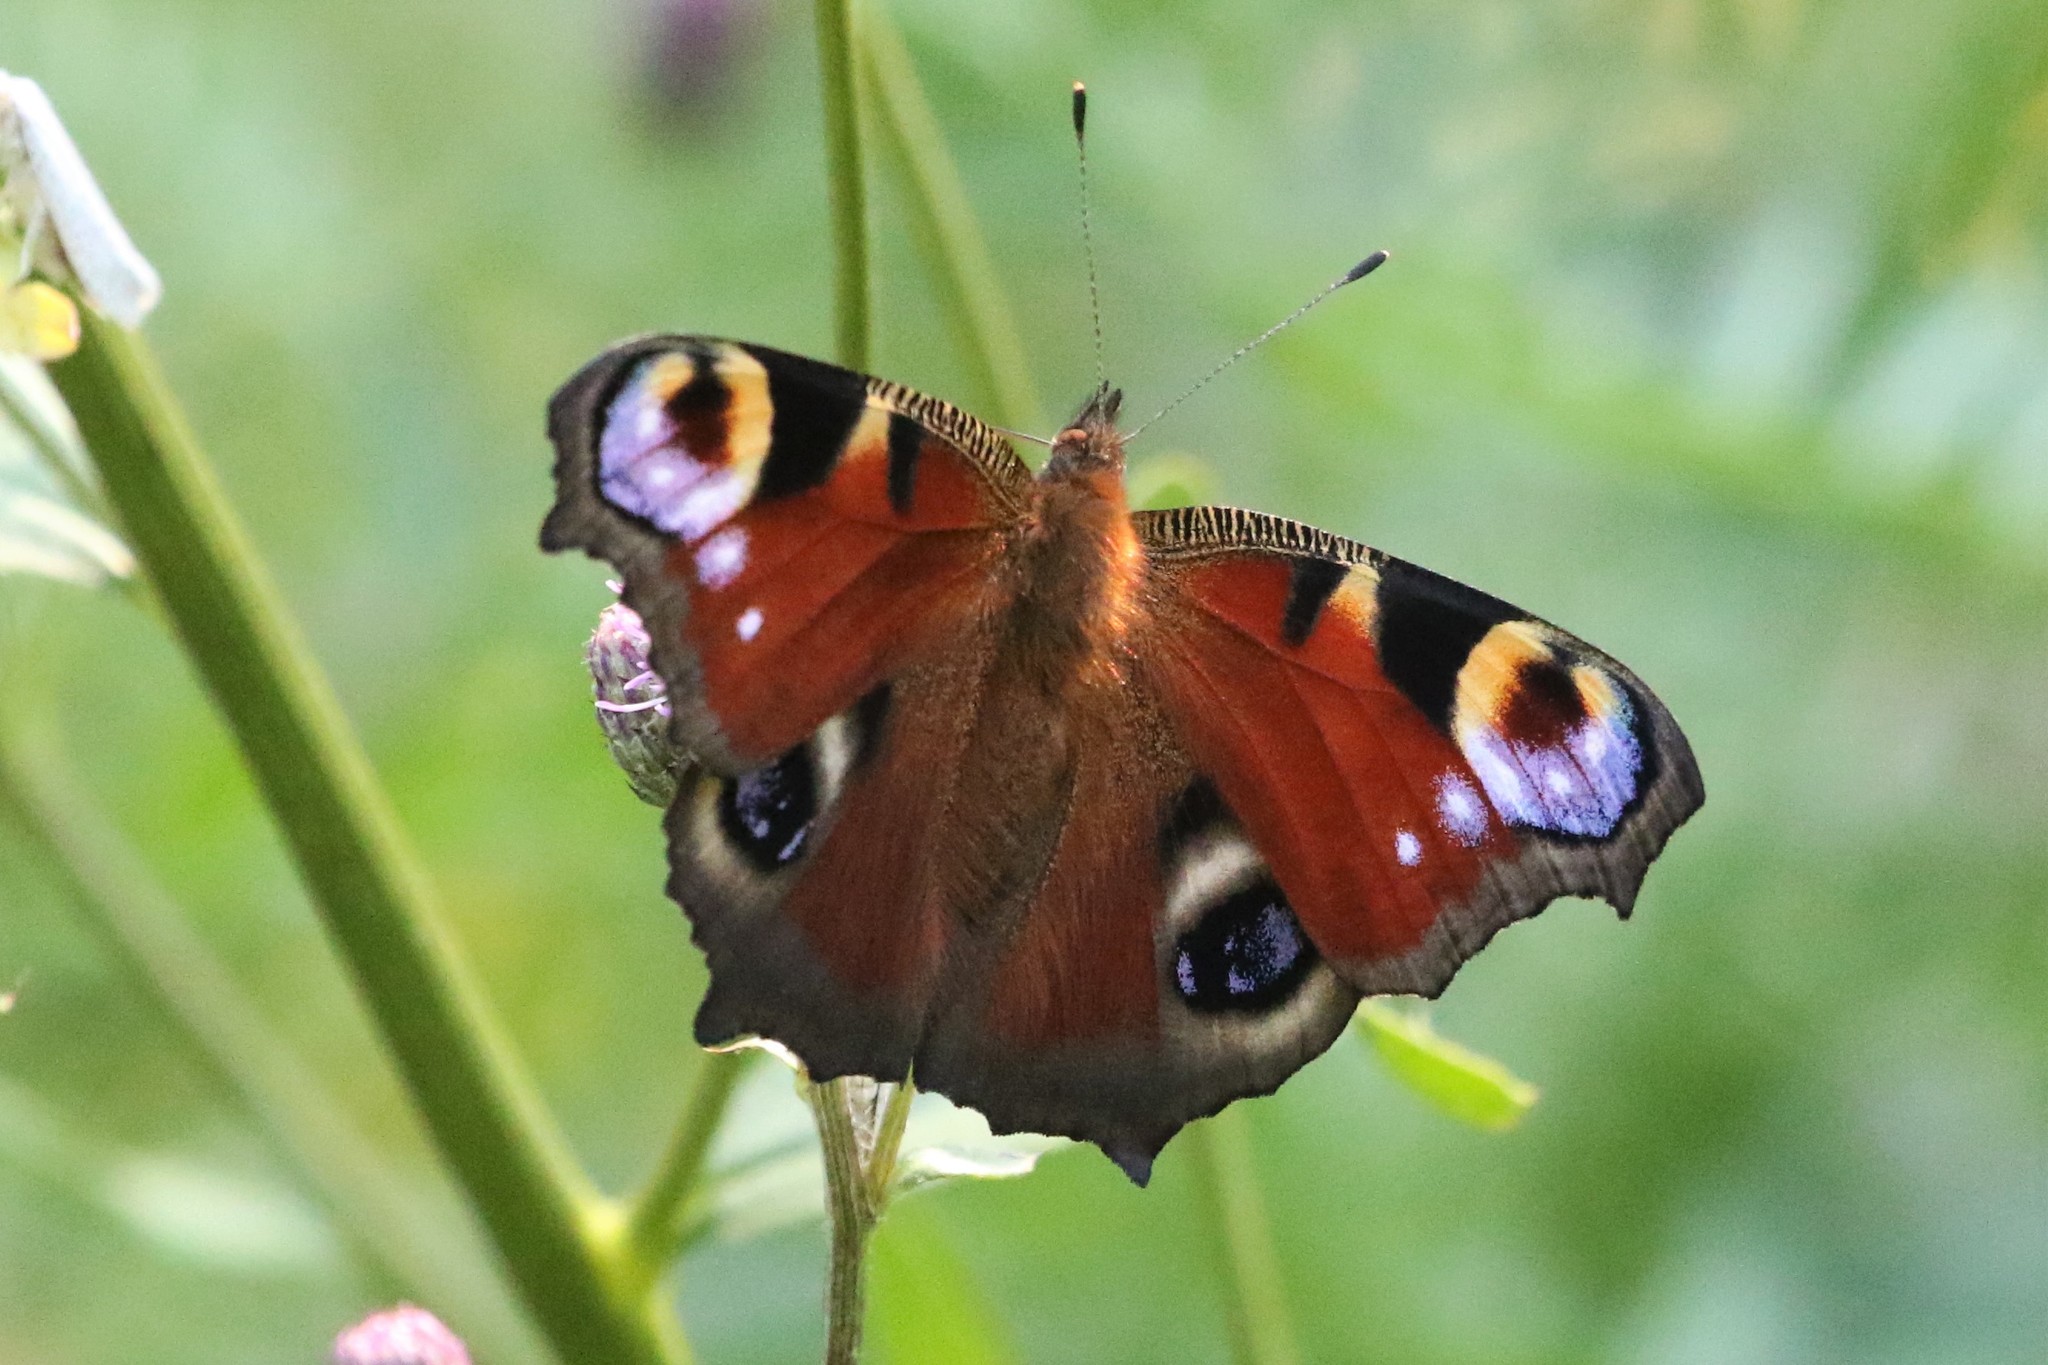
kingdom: Animalia
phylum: Arthropoda
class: Insecta
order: Lepidoptera
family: Nymphalidae
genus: Aglais
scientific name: Aglais io
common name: Peacock
